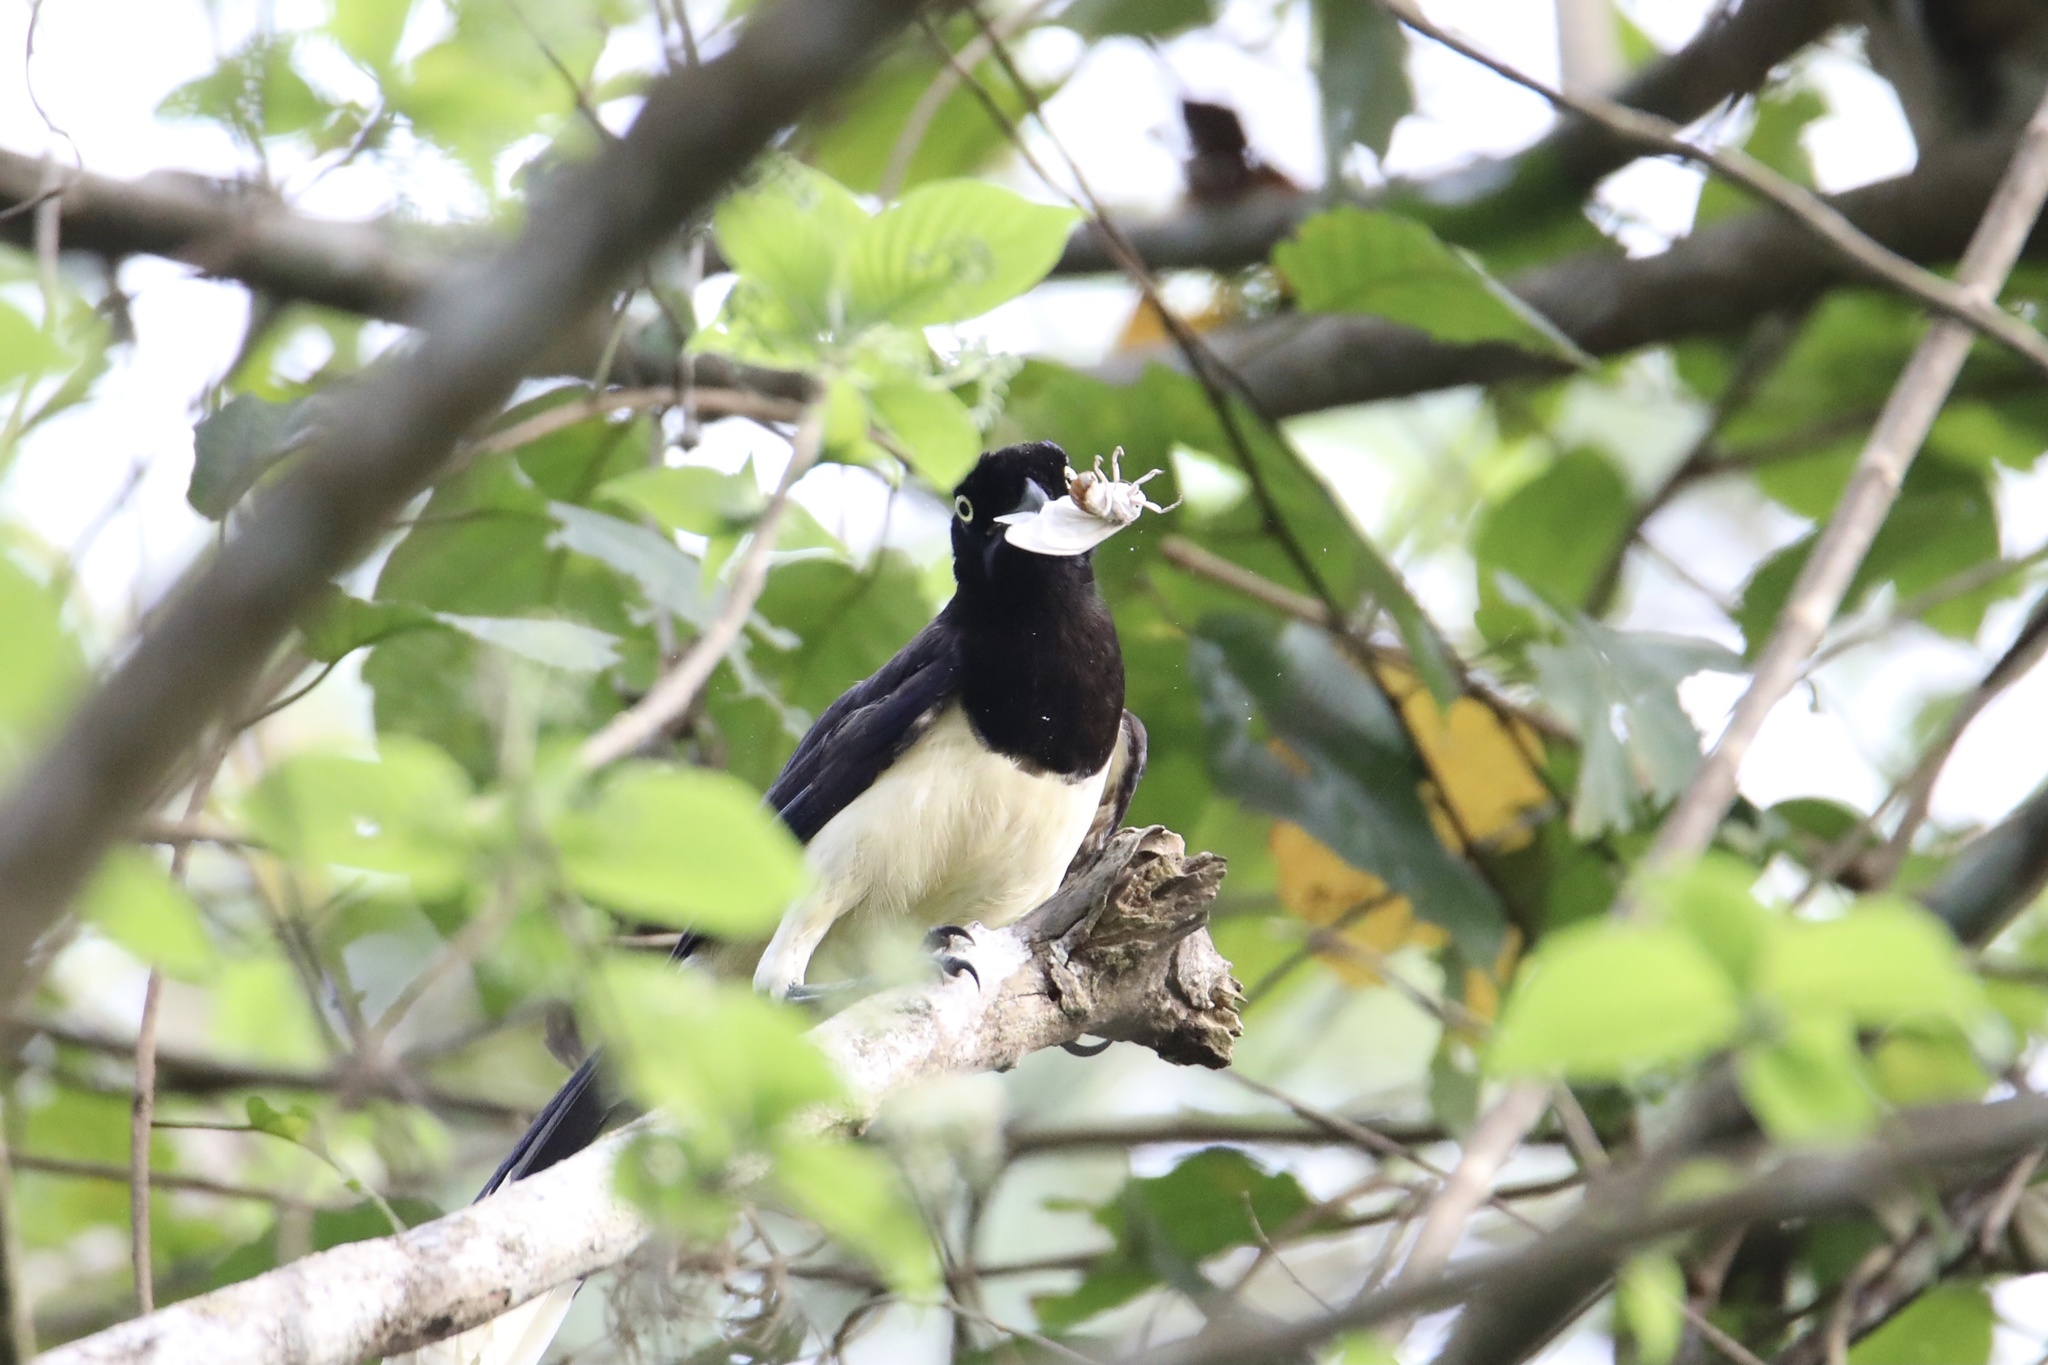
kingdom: Animalia
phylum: Chordata
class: Aves
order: Passeriformes
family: Corvidae
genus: Cyanocorax
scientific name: Cyanocorax affinis
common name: Black-chested jay
